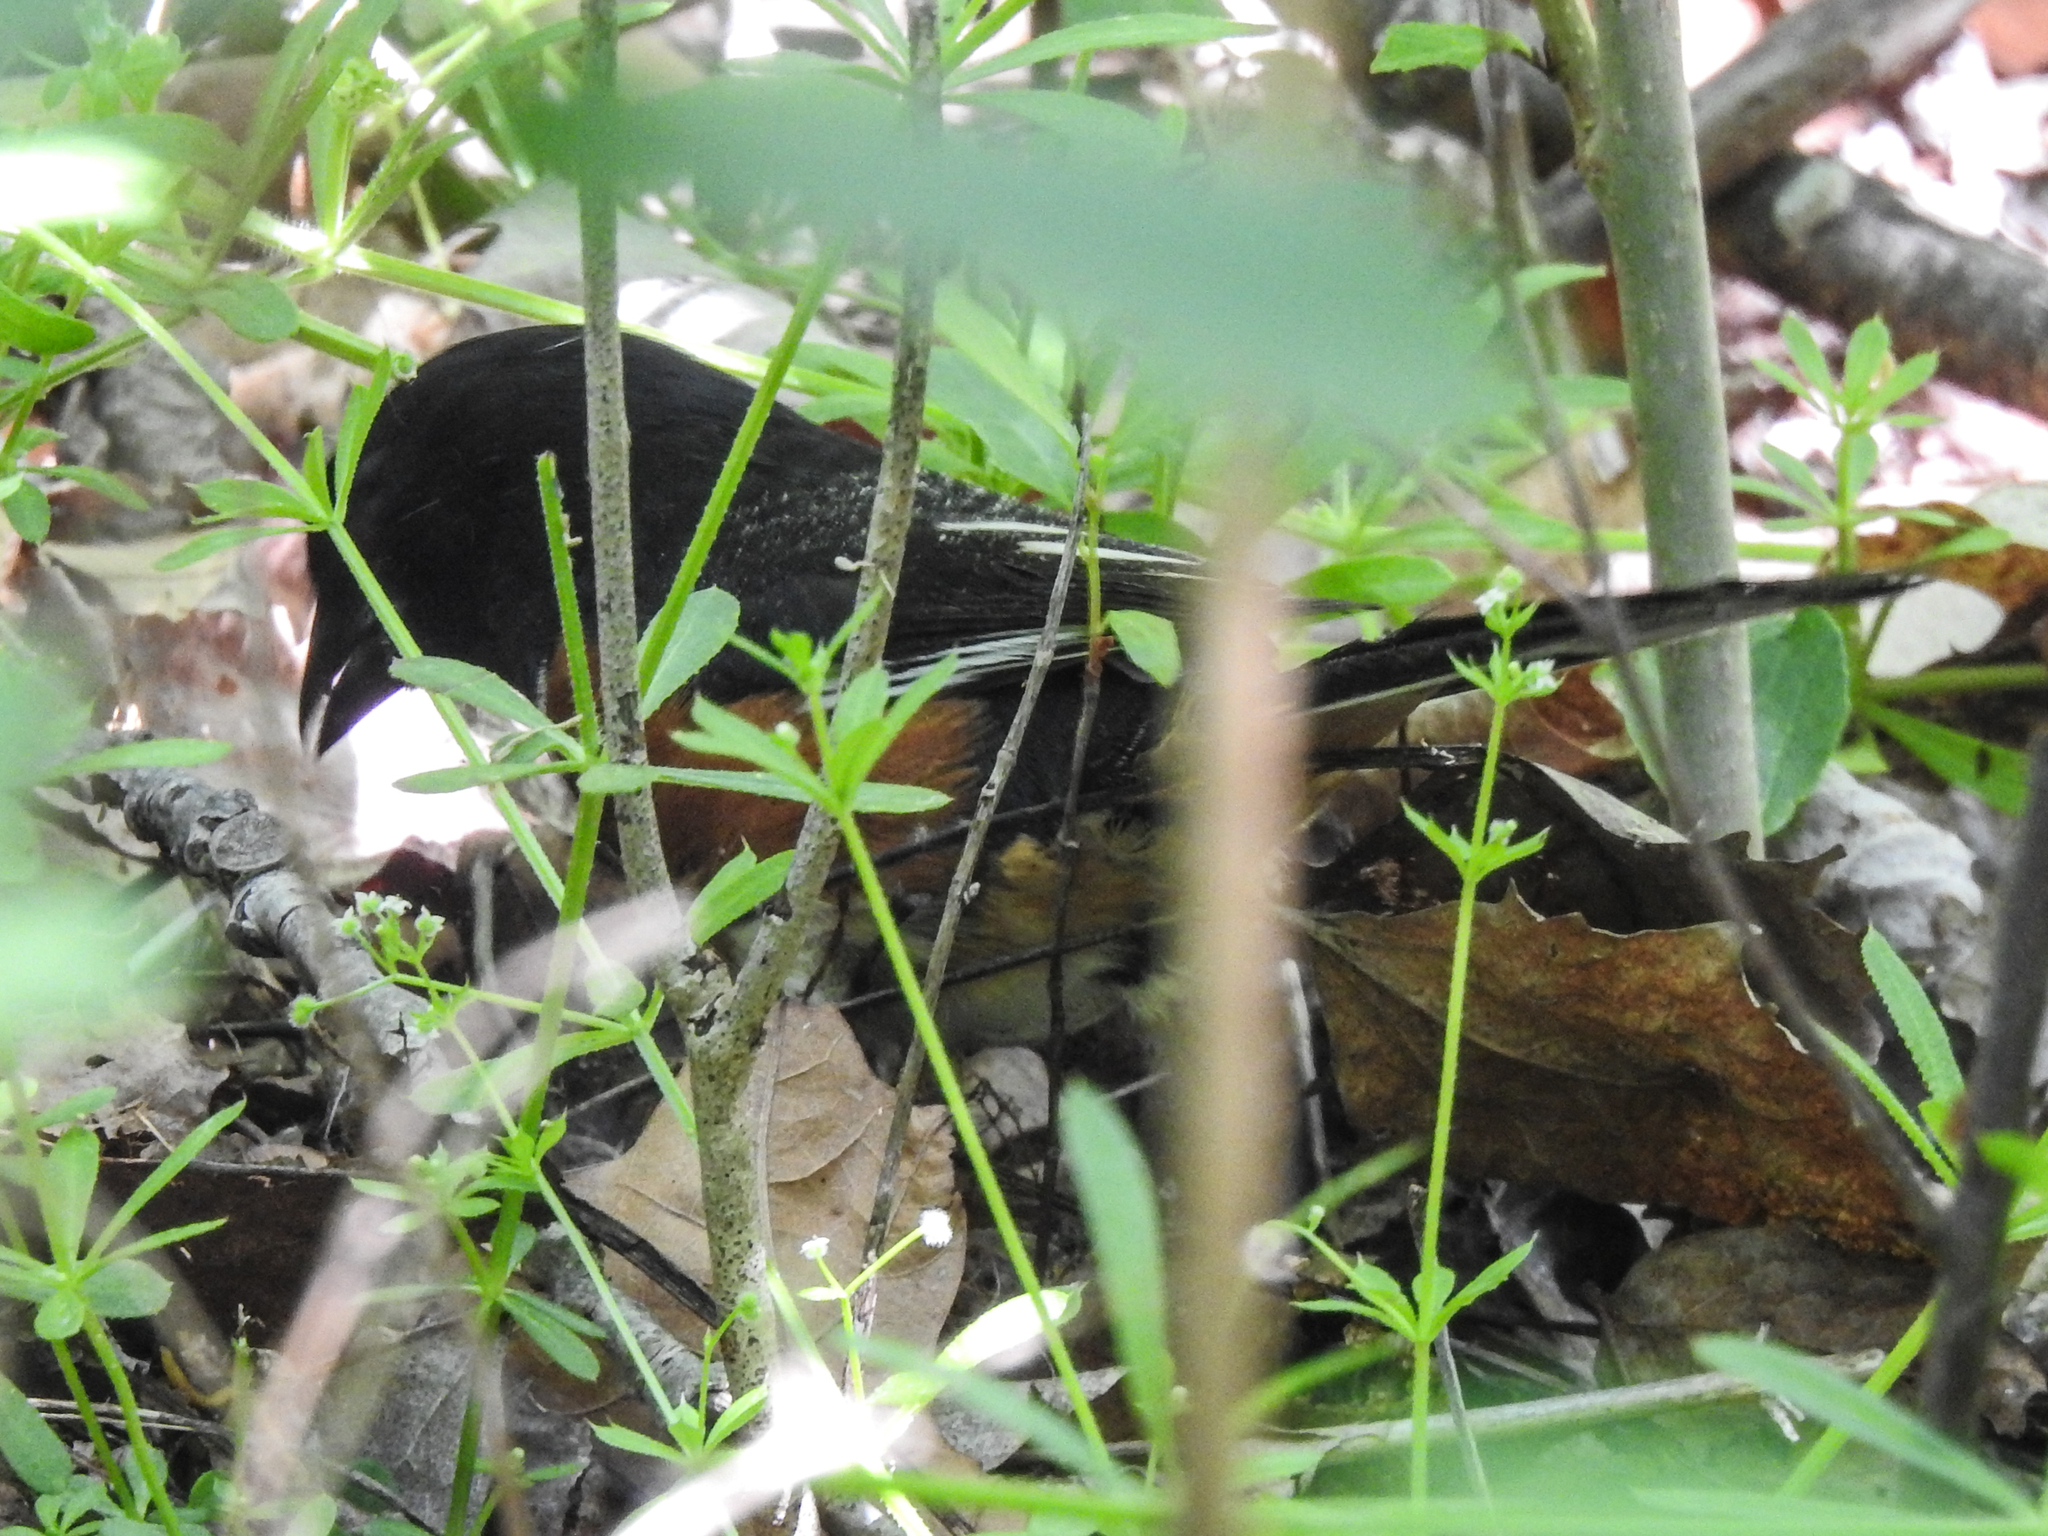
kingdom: Animalia
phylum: Chordata
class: Aves
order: Passeriformes
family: Passerellidae
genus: Pipilo
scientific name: Pipilo erythrophthalmus
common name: Eastern towhee
